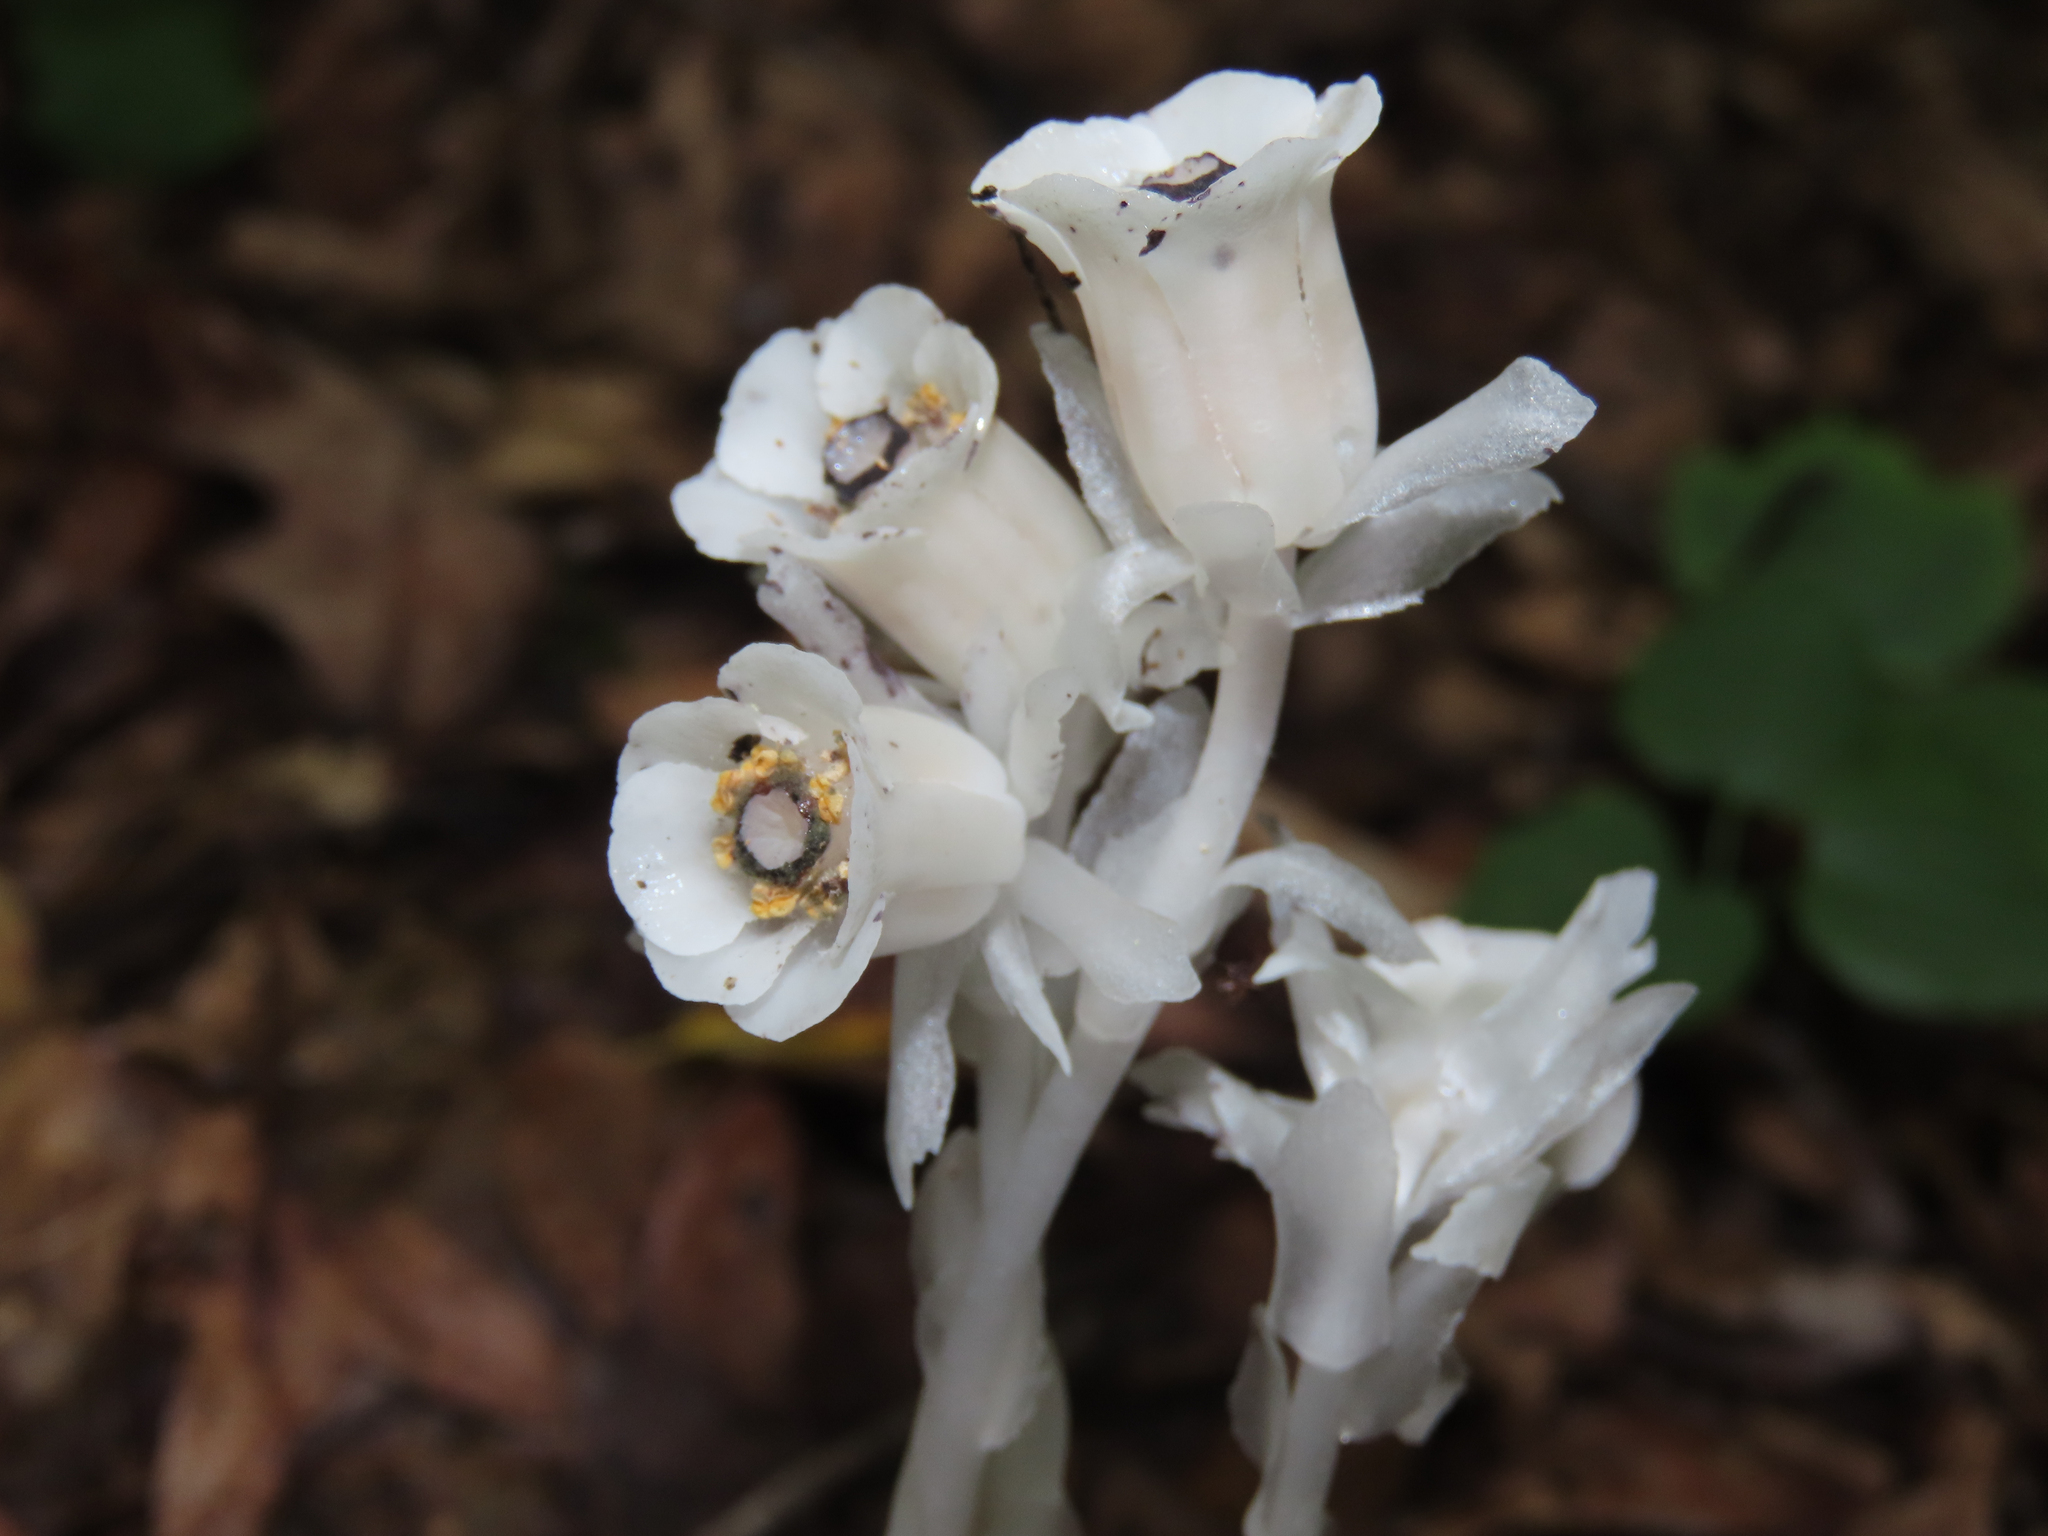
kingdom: Plantae
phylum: Tracheophyta
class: Magnoliopsida
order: Ericales
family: Ericaceae
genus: Monotropa
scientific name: Monotropa uniflora
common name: Convulsion root
